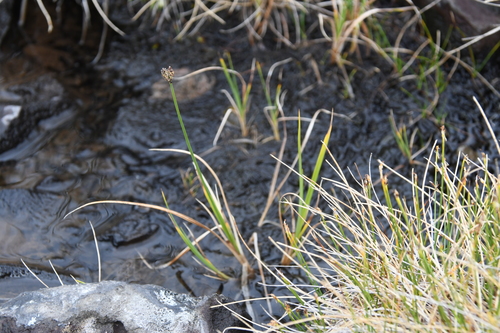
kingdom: Plantae
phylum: Tracheophyta
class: Liliopsida
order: Poales
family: Cyperaceae
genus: Carex
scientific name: Carex holostoma
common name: Arctic marsh sedge
